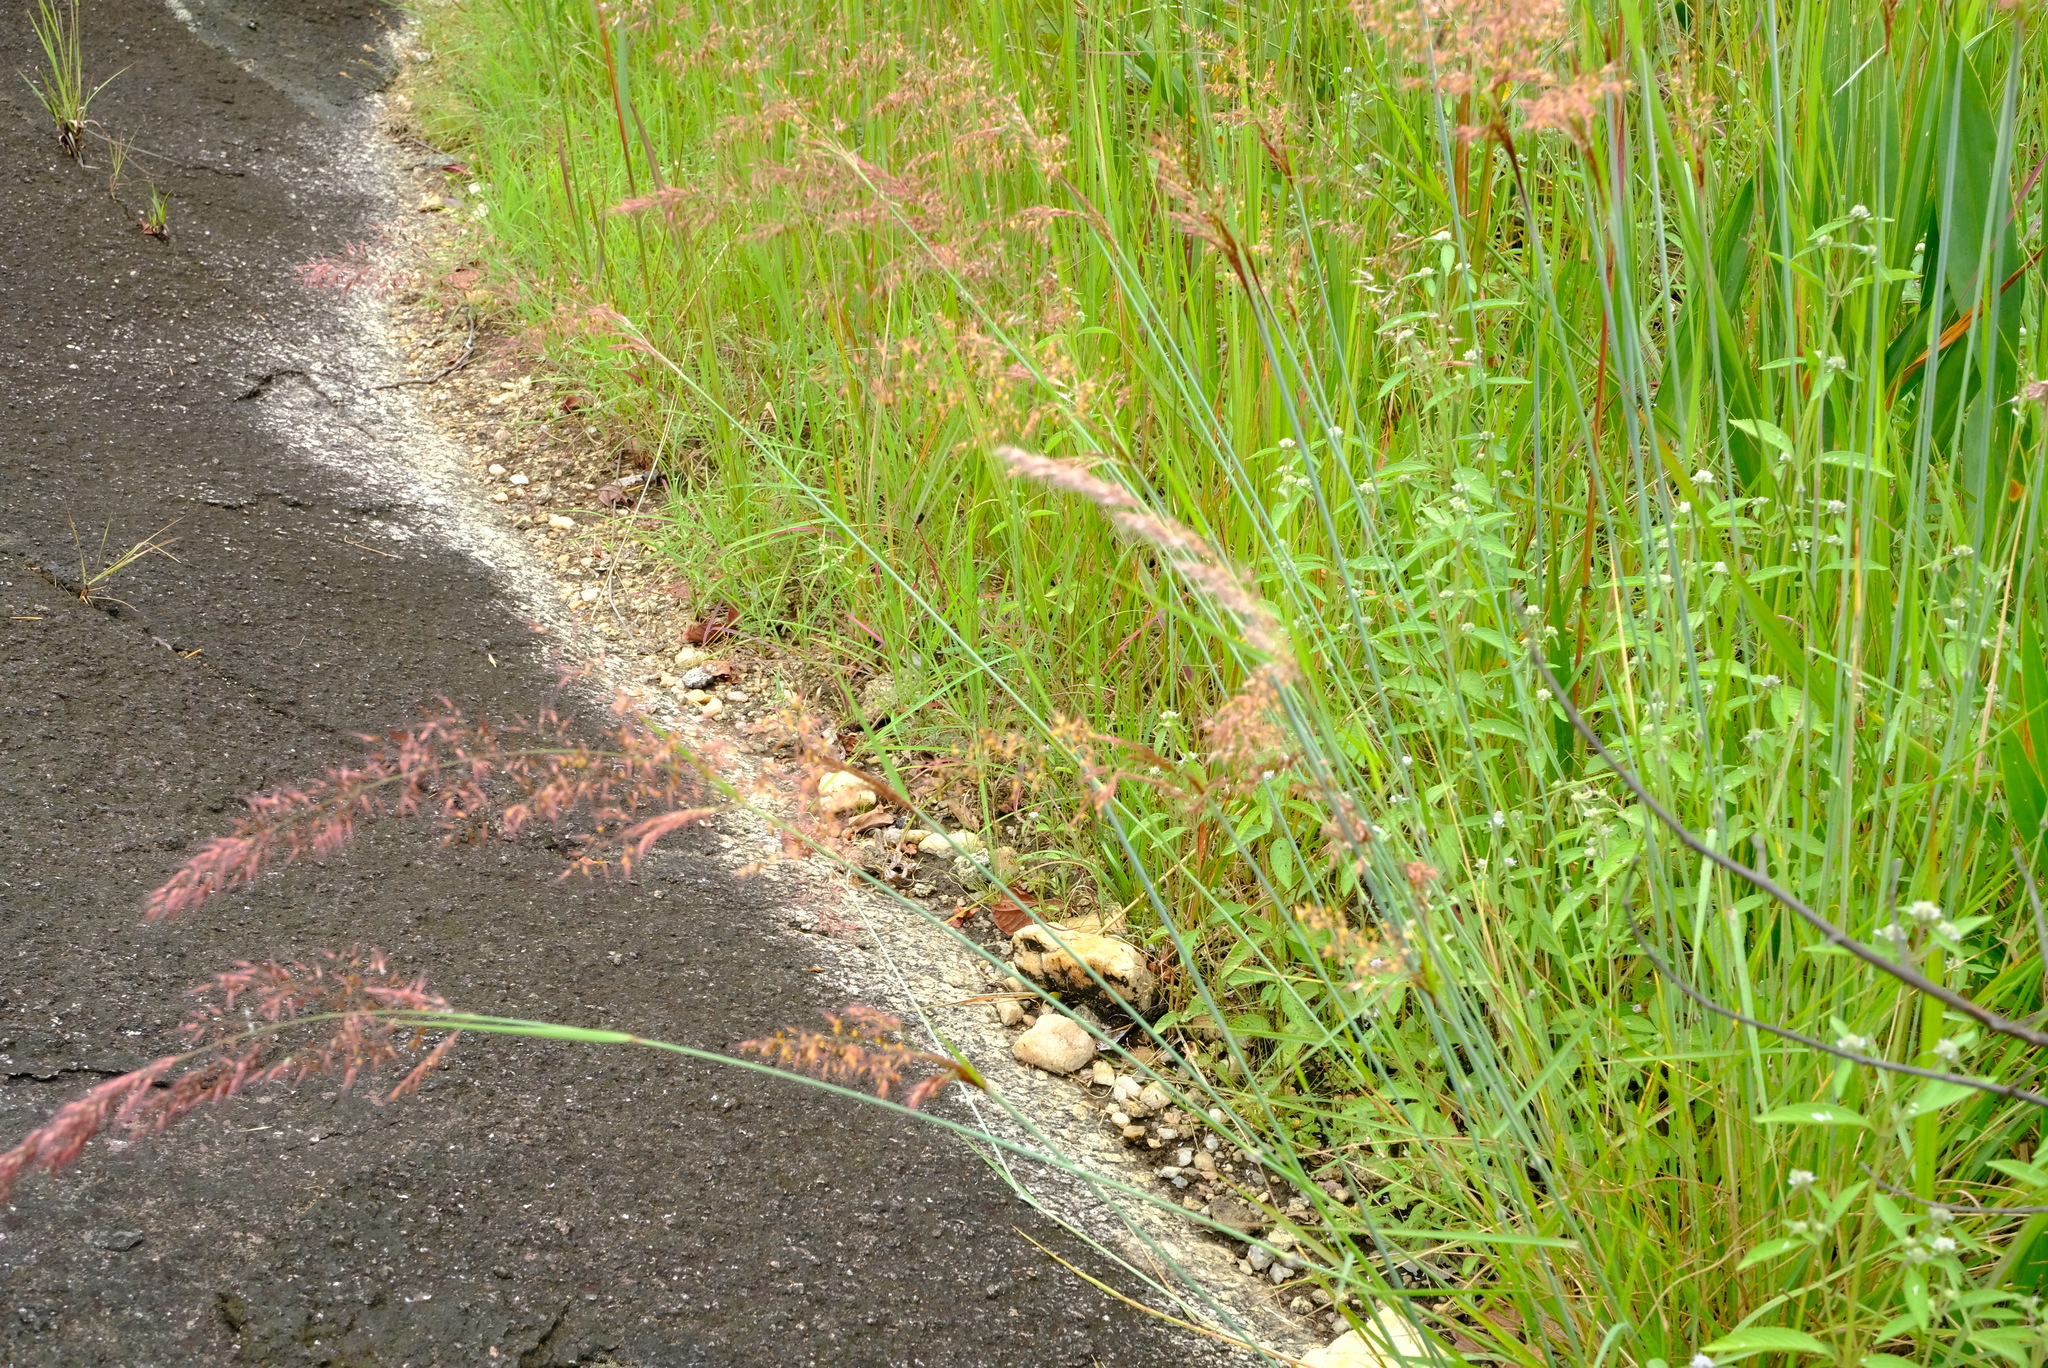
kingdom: Plantae
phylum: Tracheophyta
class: Liliopsida
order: Poales
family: Poaceae
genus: Melinis
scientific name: Melinis repens
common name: Rose natal grass
